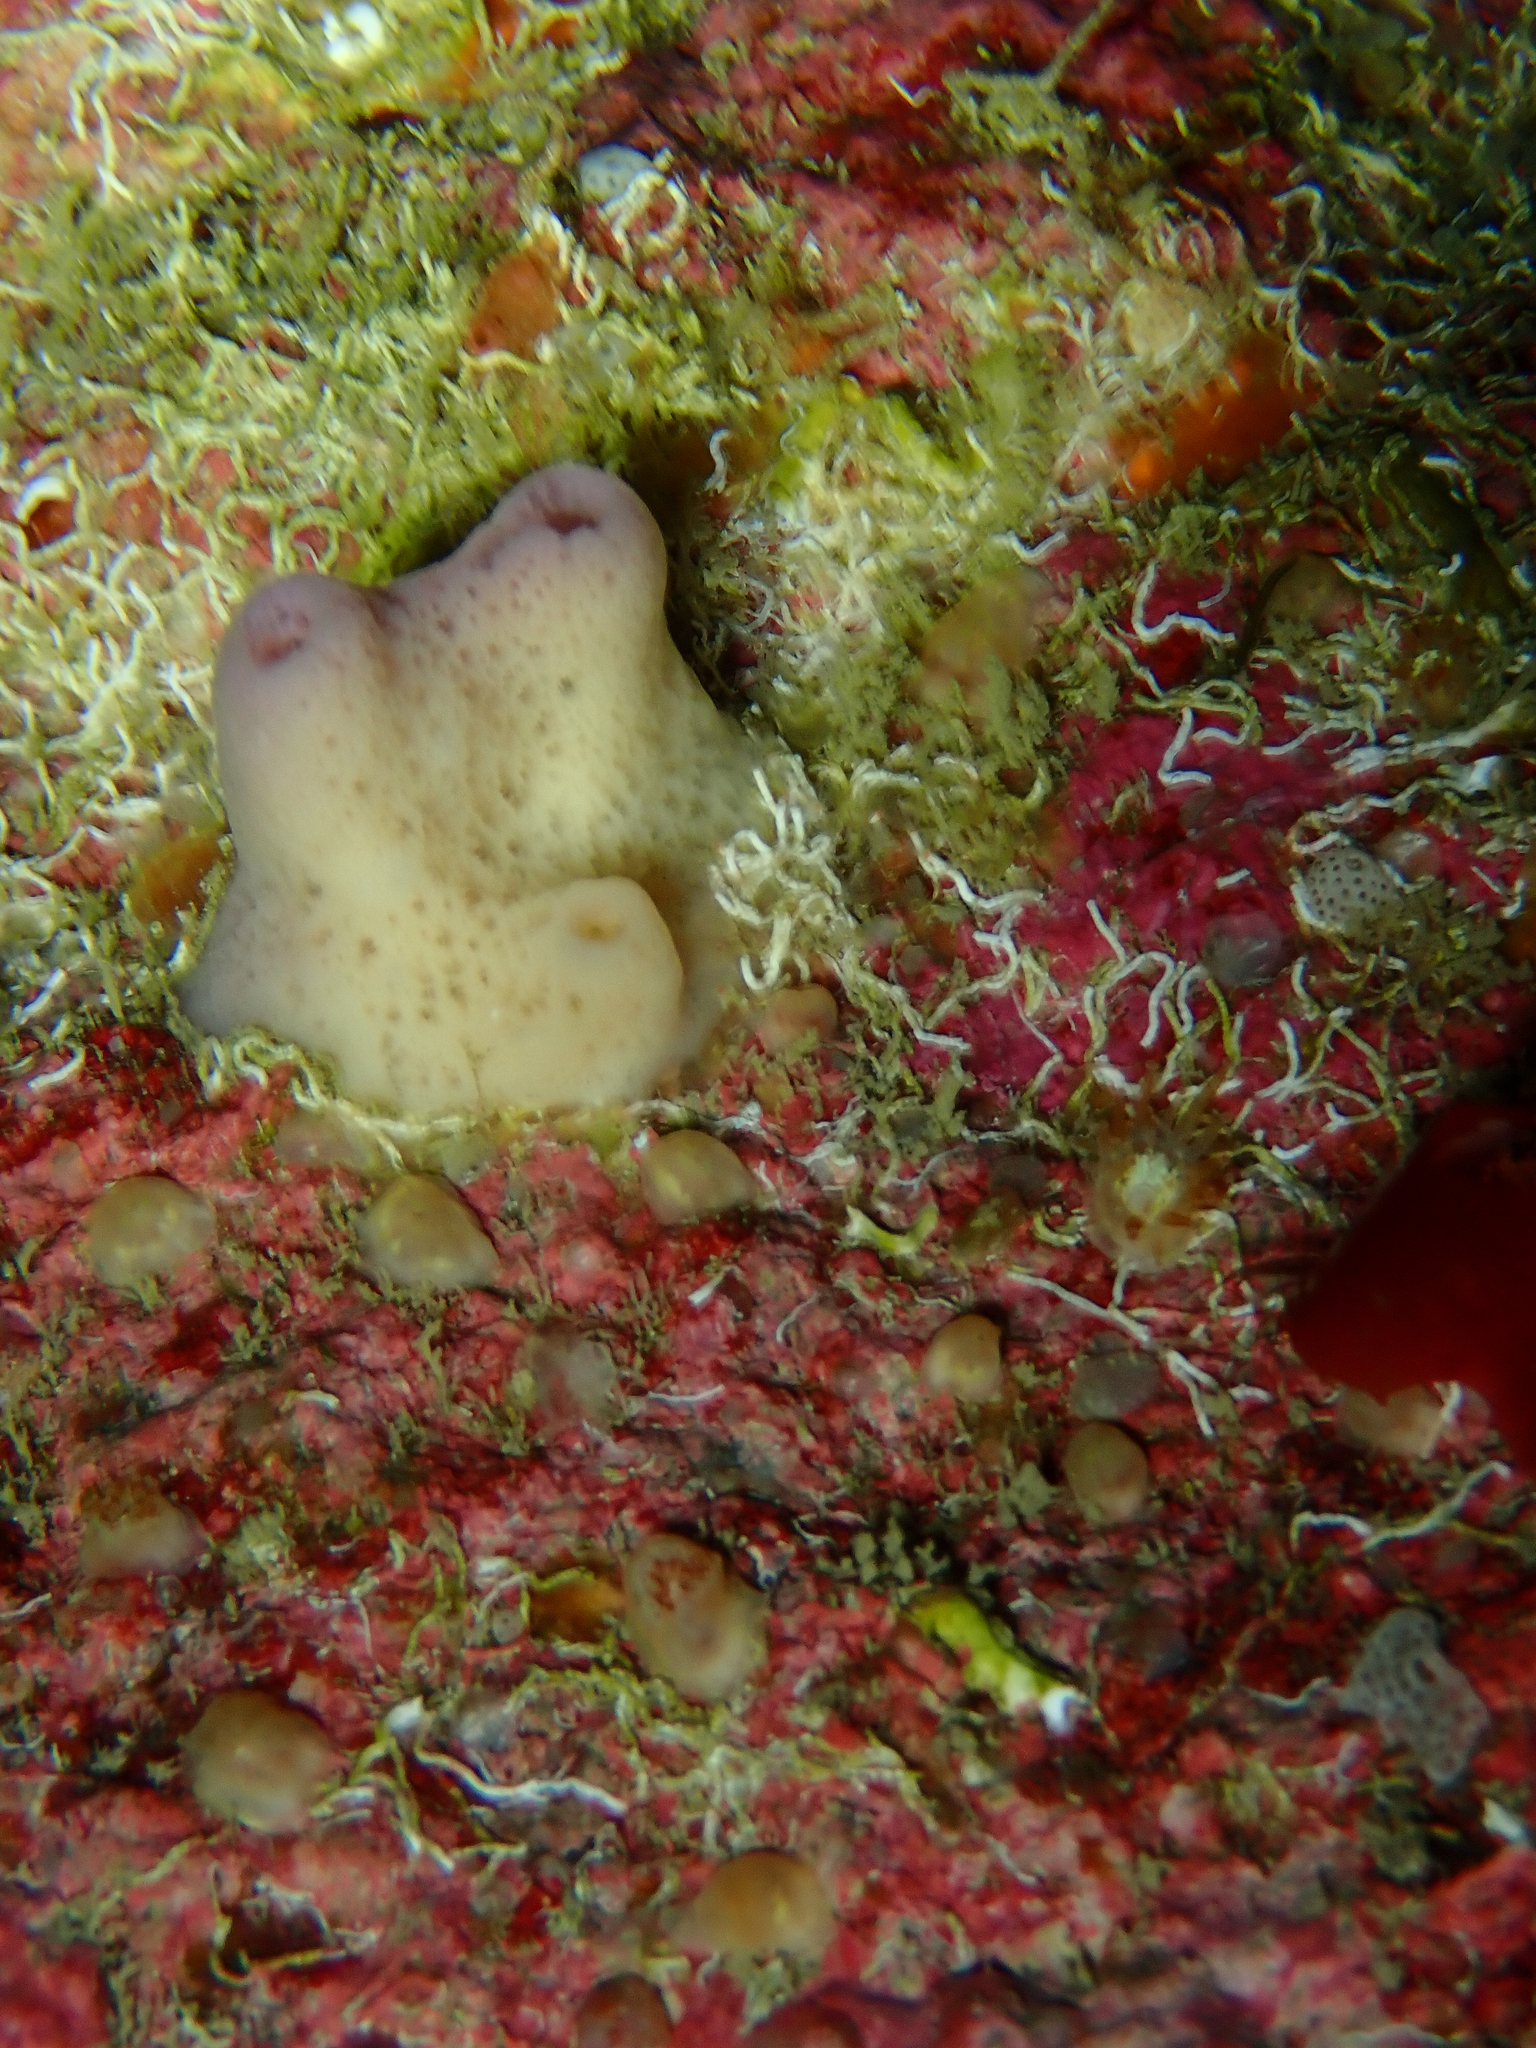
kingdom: Animalia
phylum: Porifera
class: Demospongiae
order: Haplosclerida
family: Chalinidae
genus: Haliclona
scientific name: Haliclona viscosa
